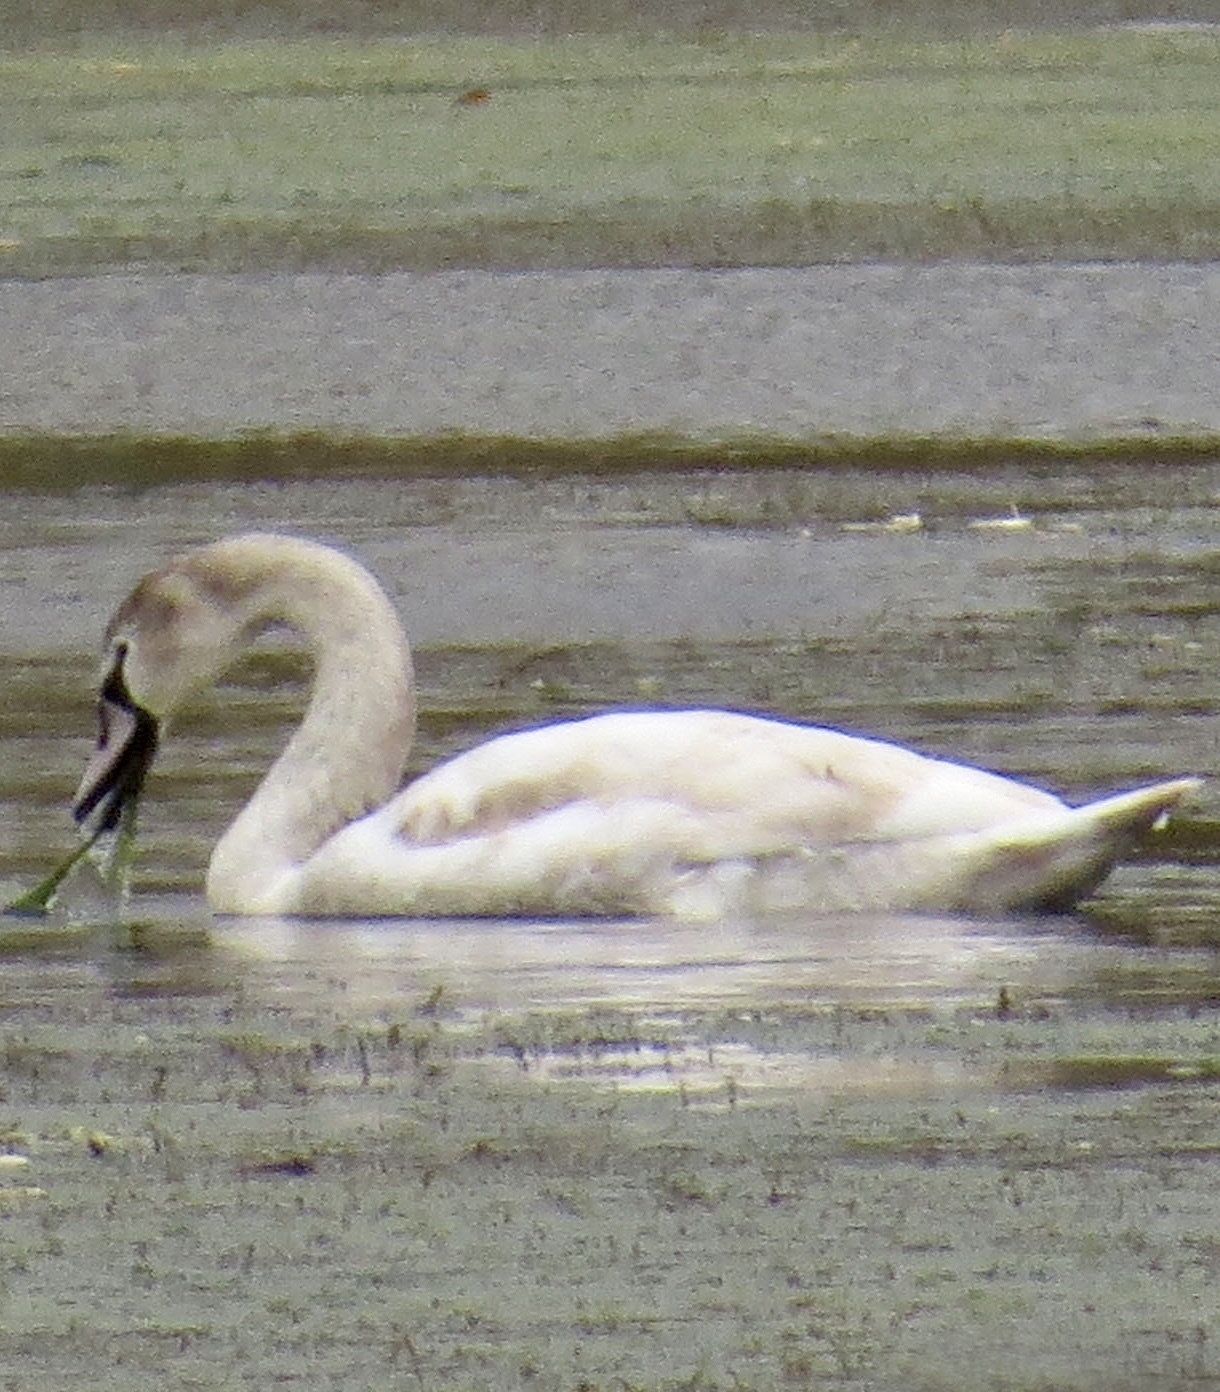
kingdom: Animalia
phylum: Chordata
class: Aves
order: Anseriformes
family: Anatidae
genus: Cygnus
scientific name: Cygnus olor
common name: Mute swan
